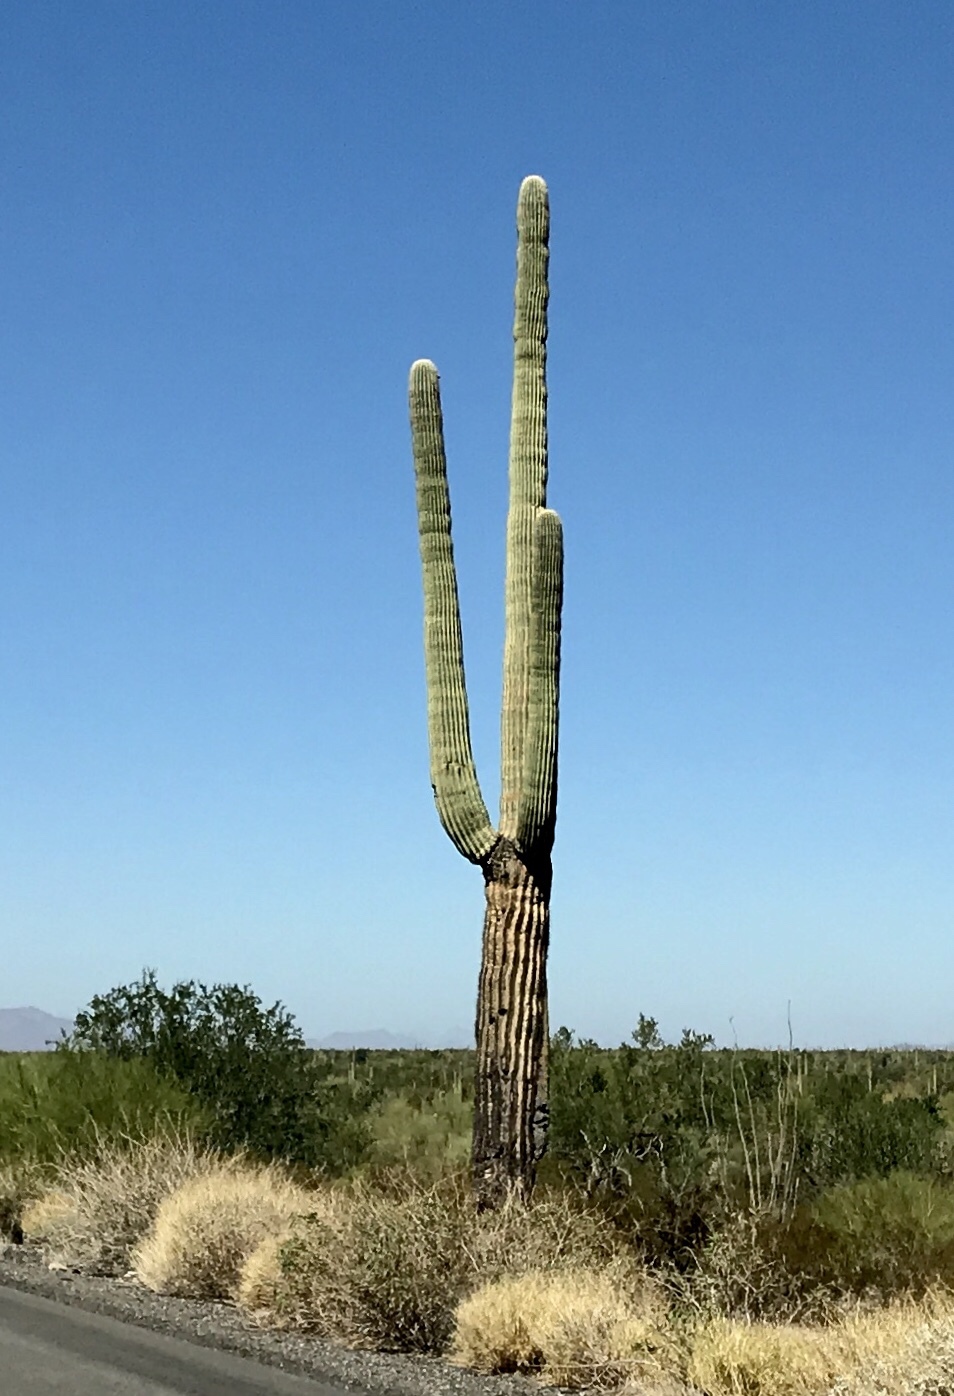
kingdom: Plantae
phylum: Tracheophyta
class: Magnoliopsida
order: Caryophyllales
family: Cactaceae
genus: Carnegiea
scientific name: Carnegiea gigantea
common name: Saguaro
